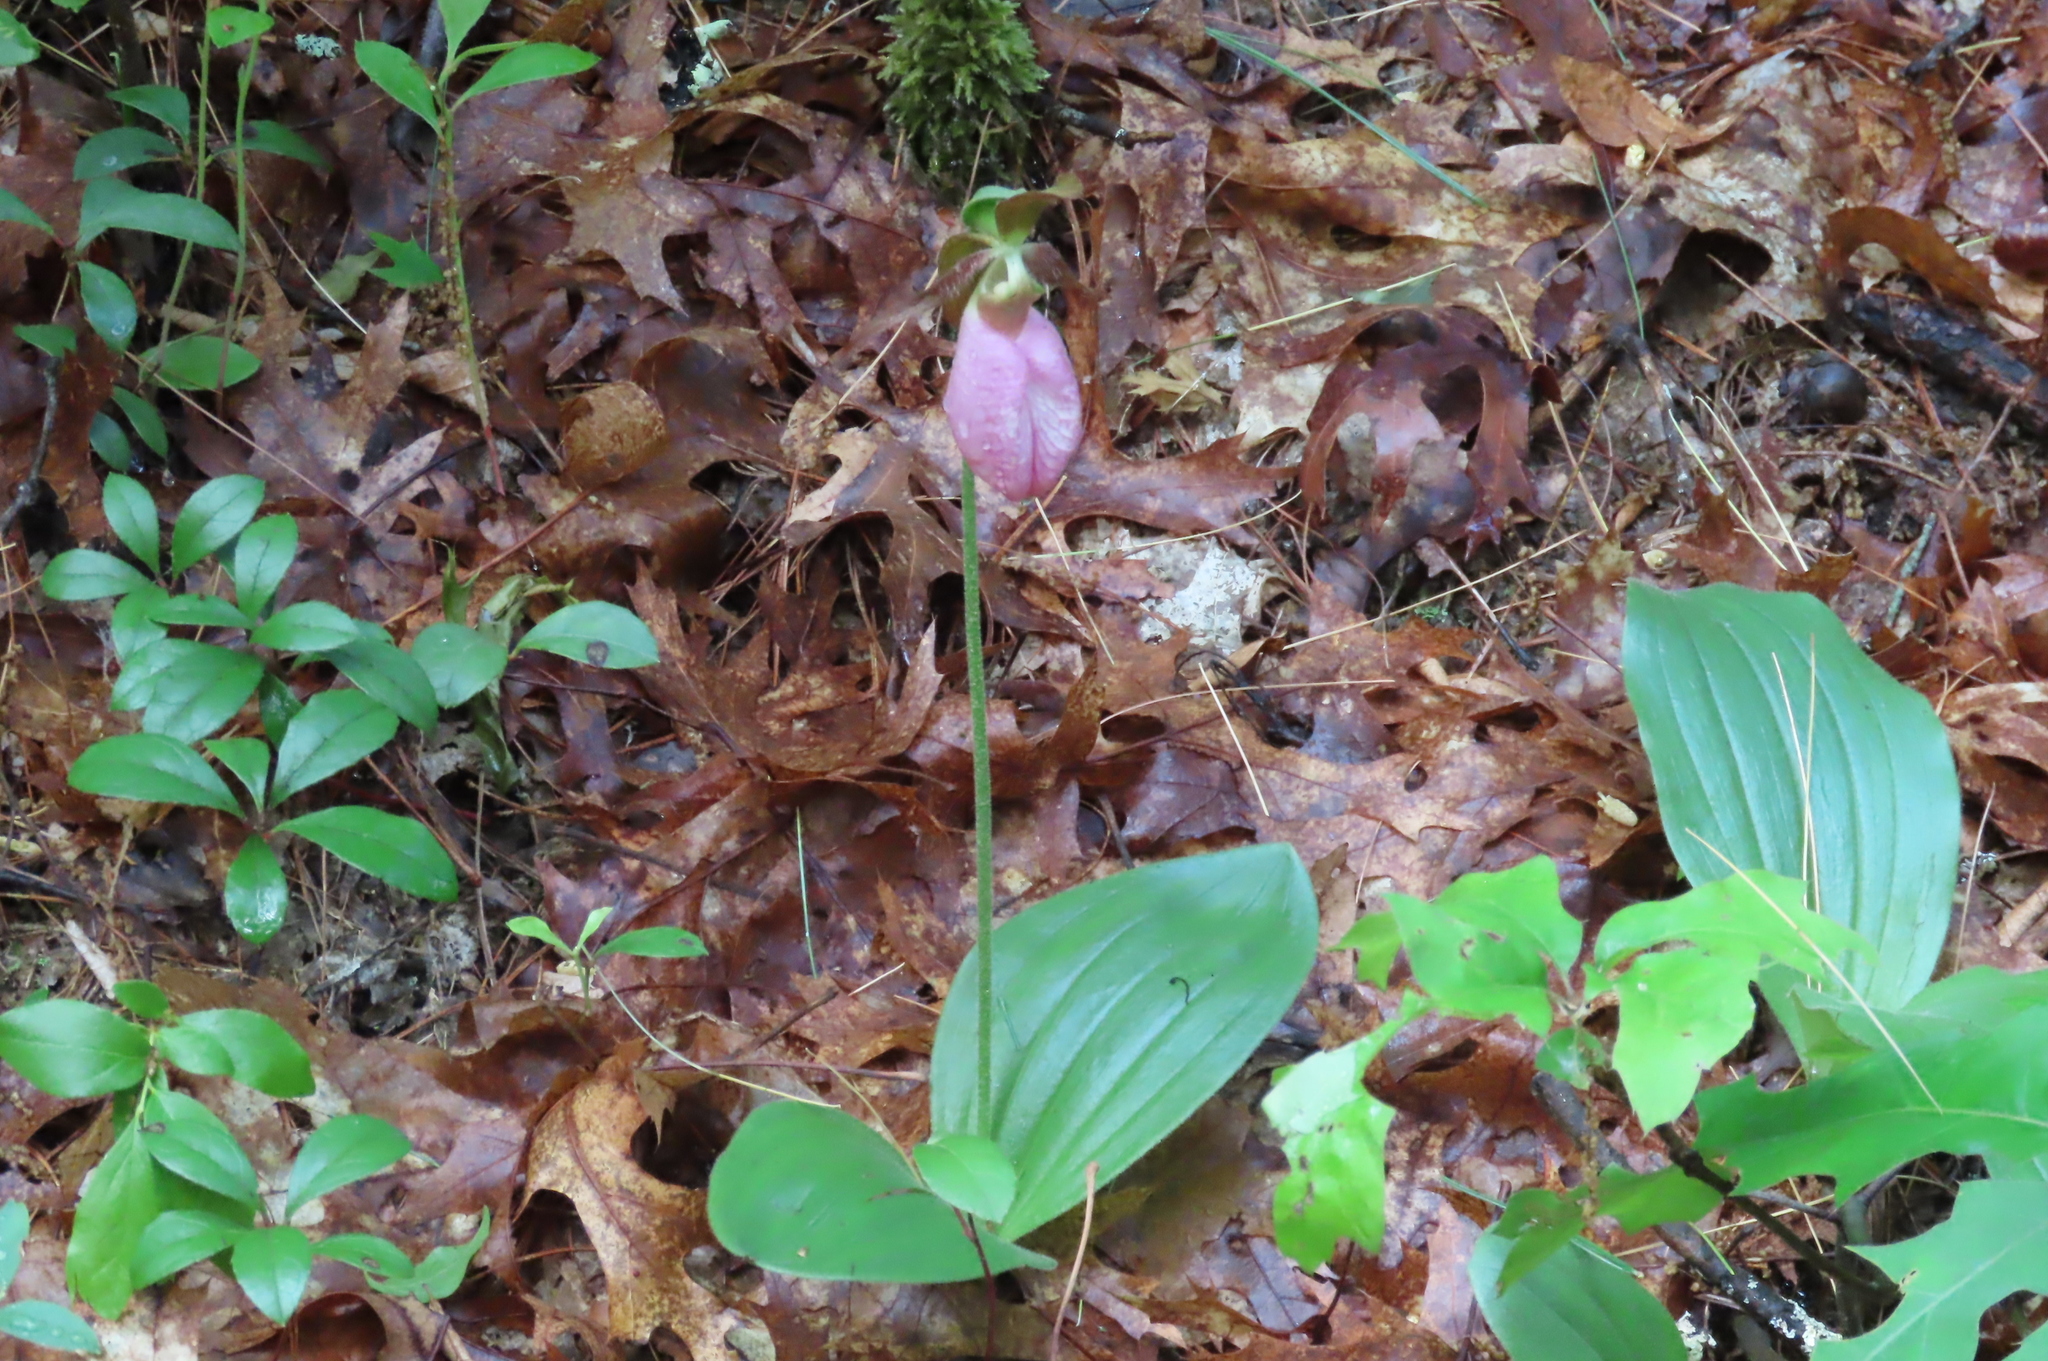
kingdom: Plantae
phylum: Tracheophyta
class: Liliopsida
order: Asparagales
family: Orchidaceae
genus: Cypripedium
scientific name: Cypripedium acaule
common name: Pink lady's-slipper
